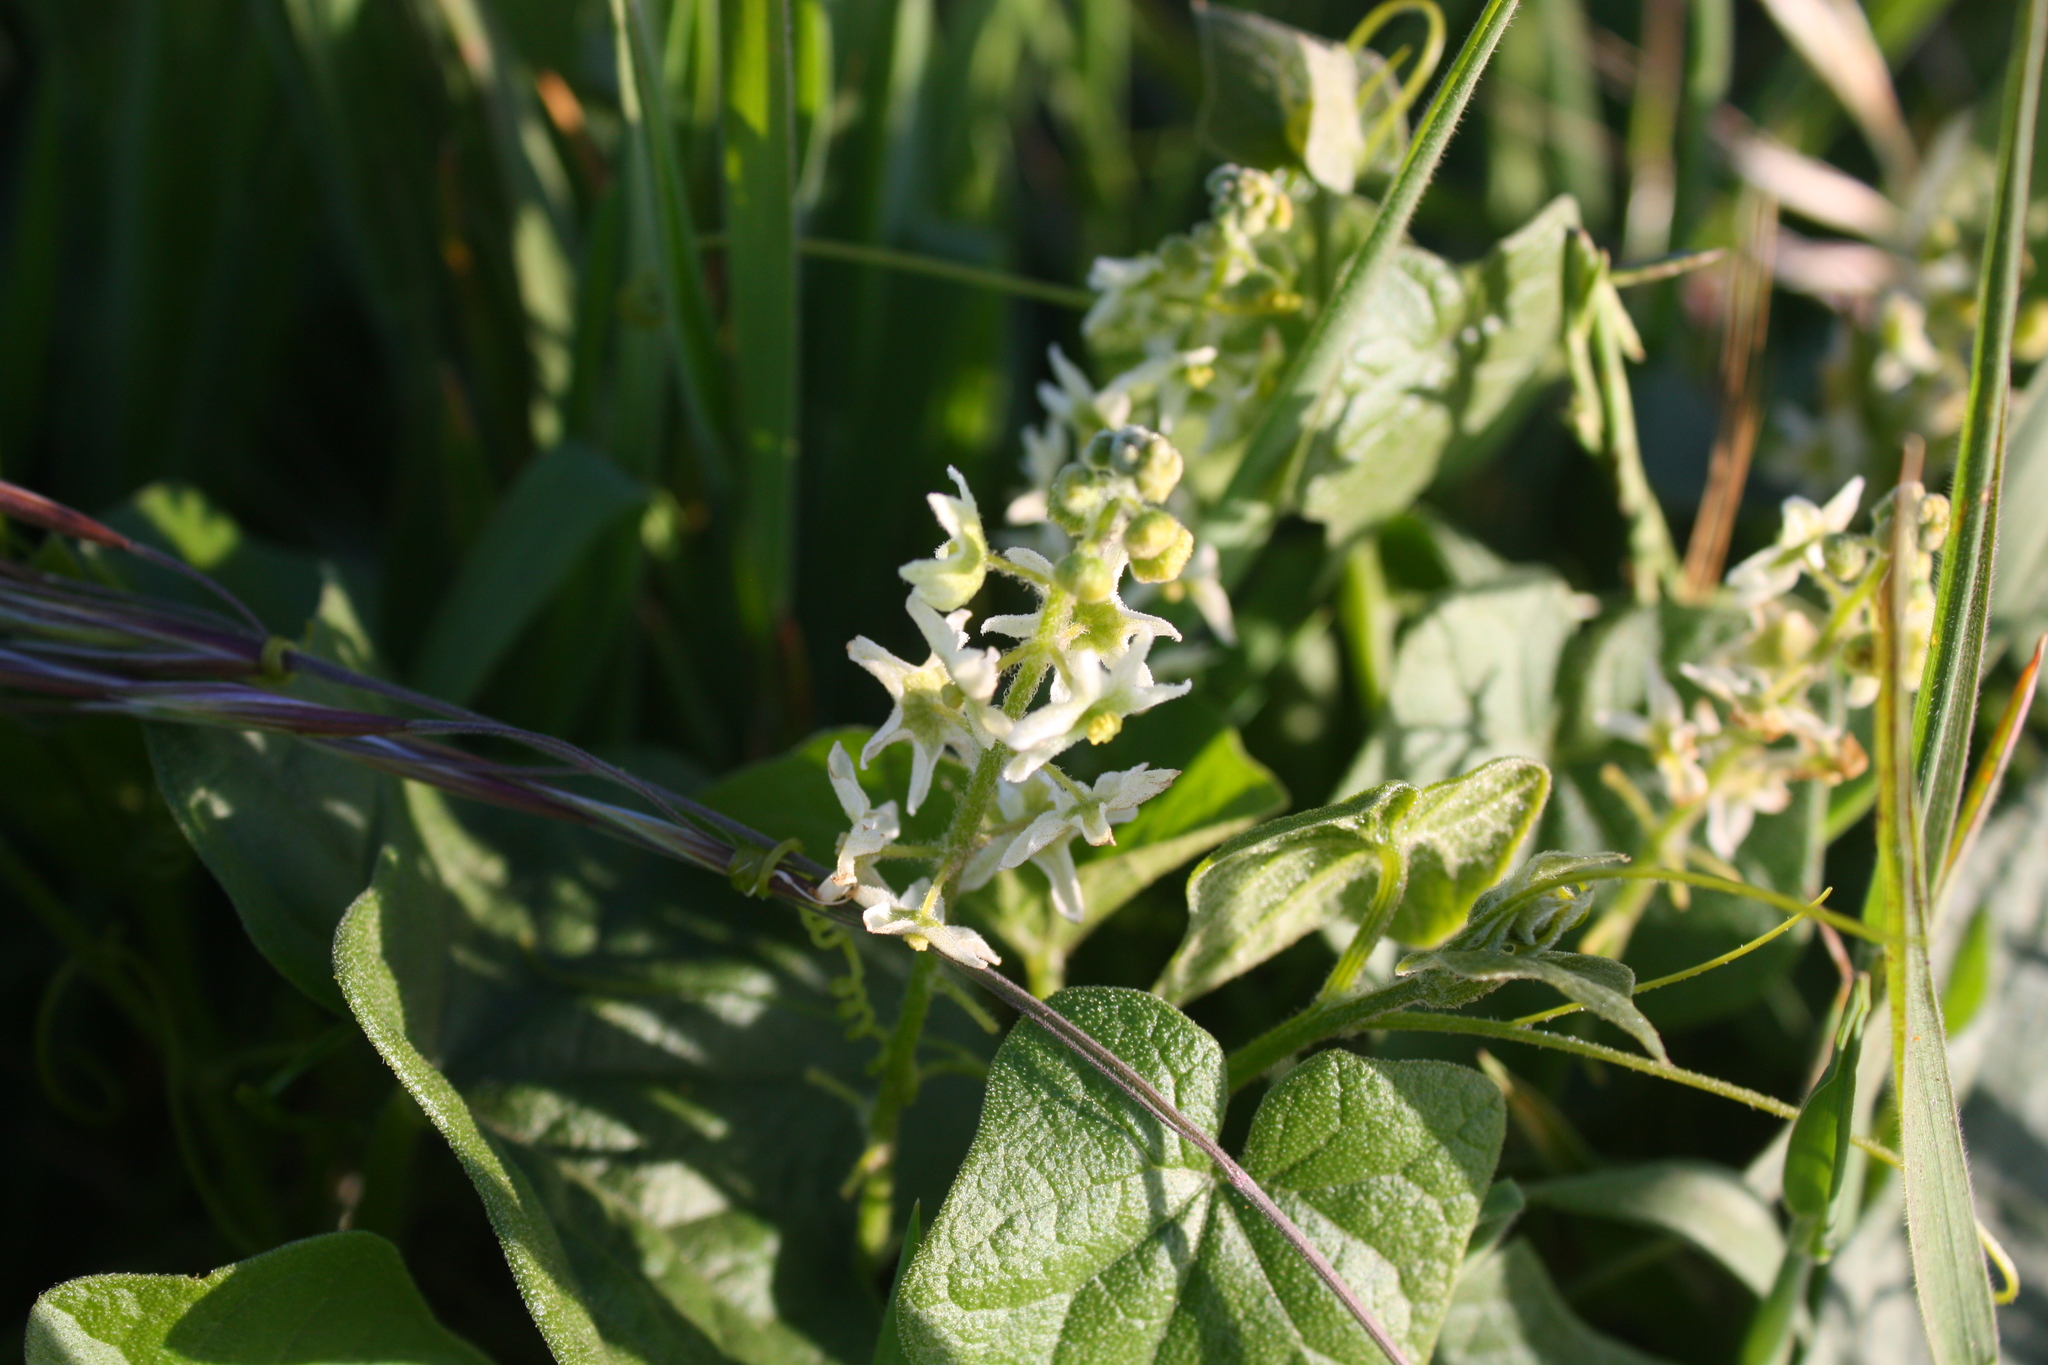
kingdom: Plantae
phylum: Tracheophyta
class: Magnoliopsida
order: Cucurbitales
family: Cucurbitaceae
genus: Marah
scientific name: Marah fabacea
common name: California manroot
